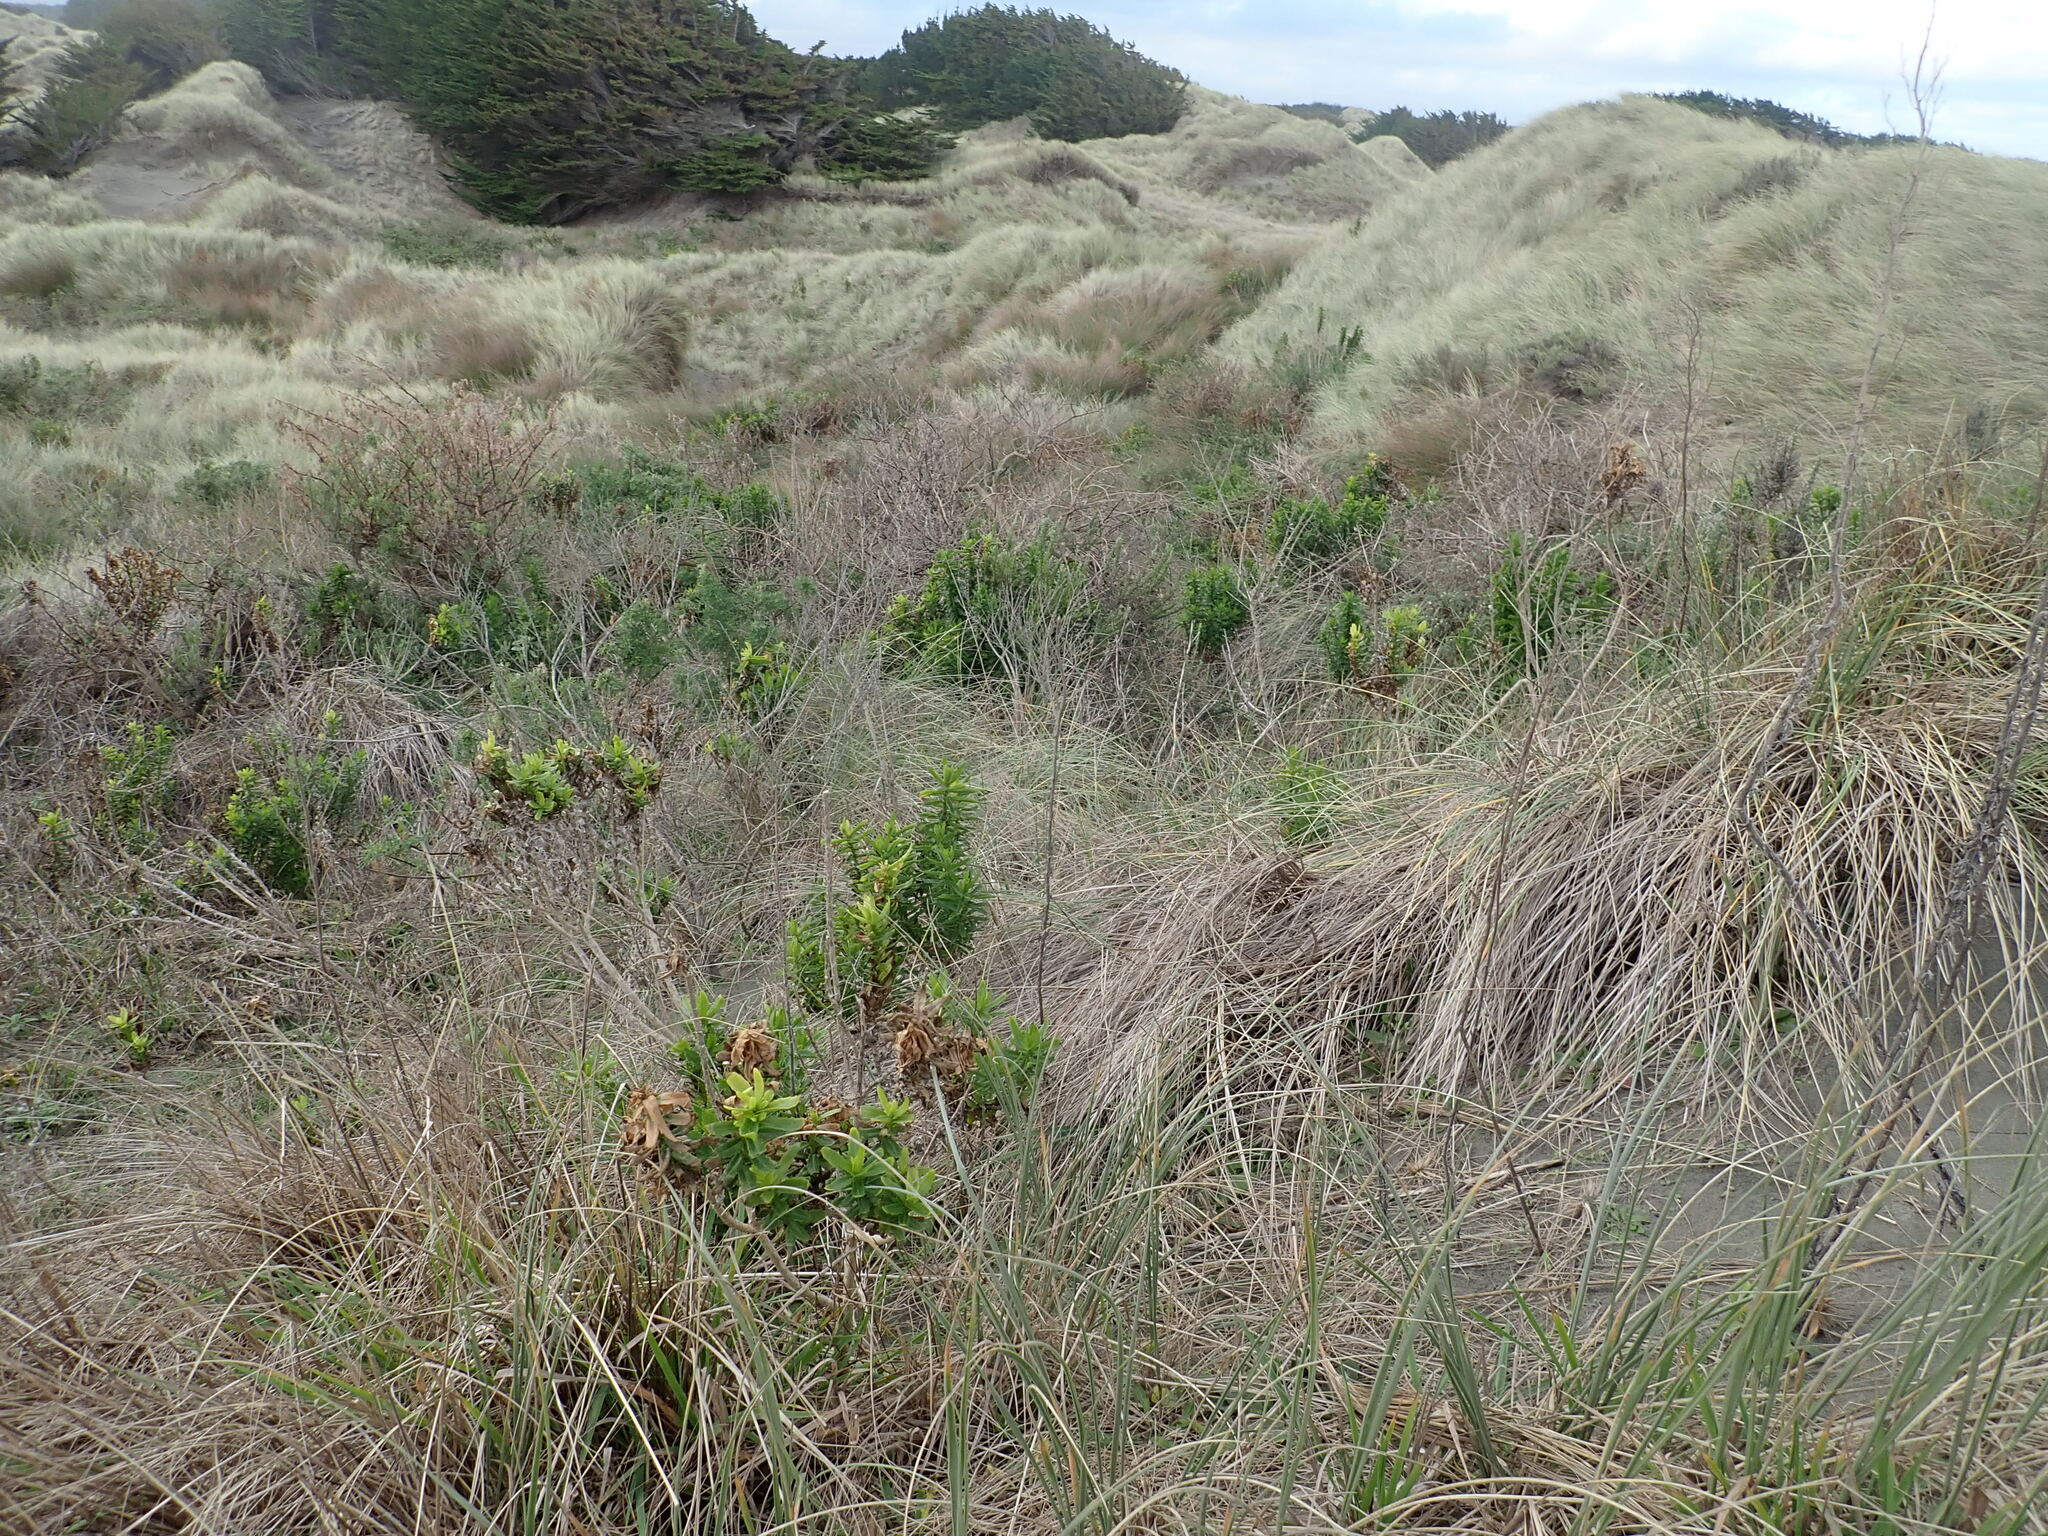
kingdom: Plantae
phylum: Tracheophyta
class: Magnoliopsida
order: Asterales
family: Asteraceae
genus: Senecio
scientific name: Senecio glastifolius
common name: Woad-leaved ragwort
